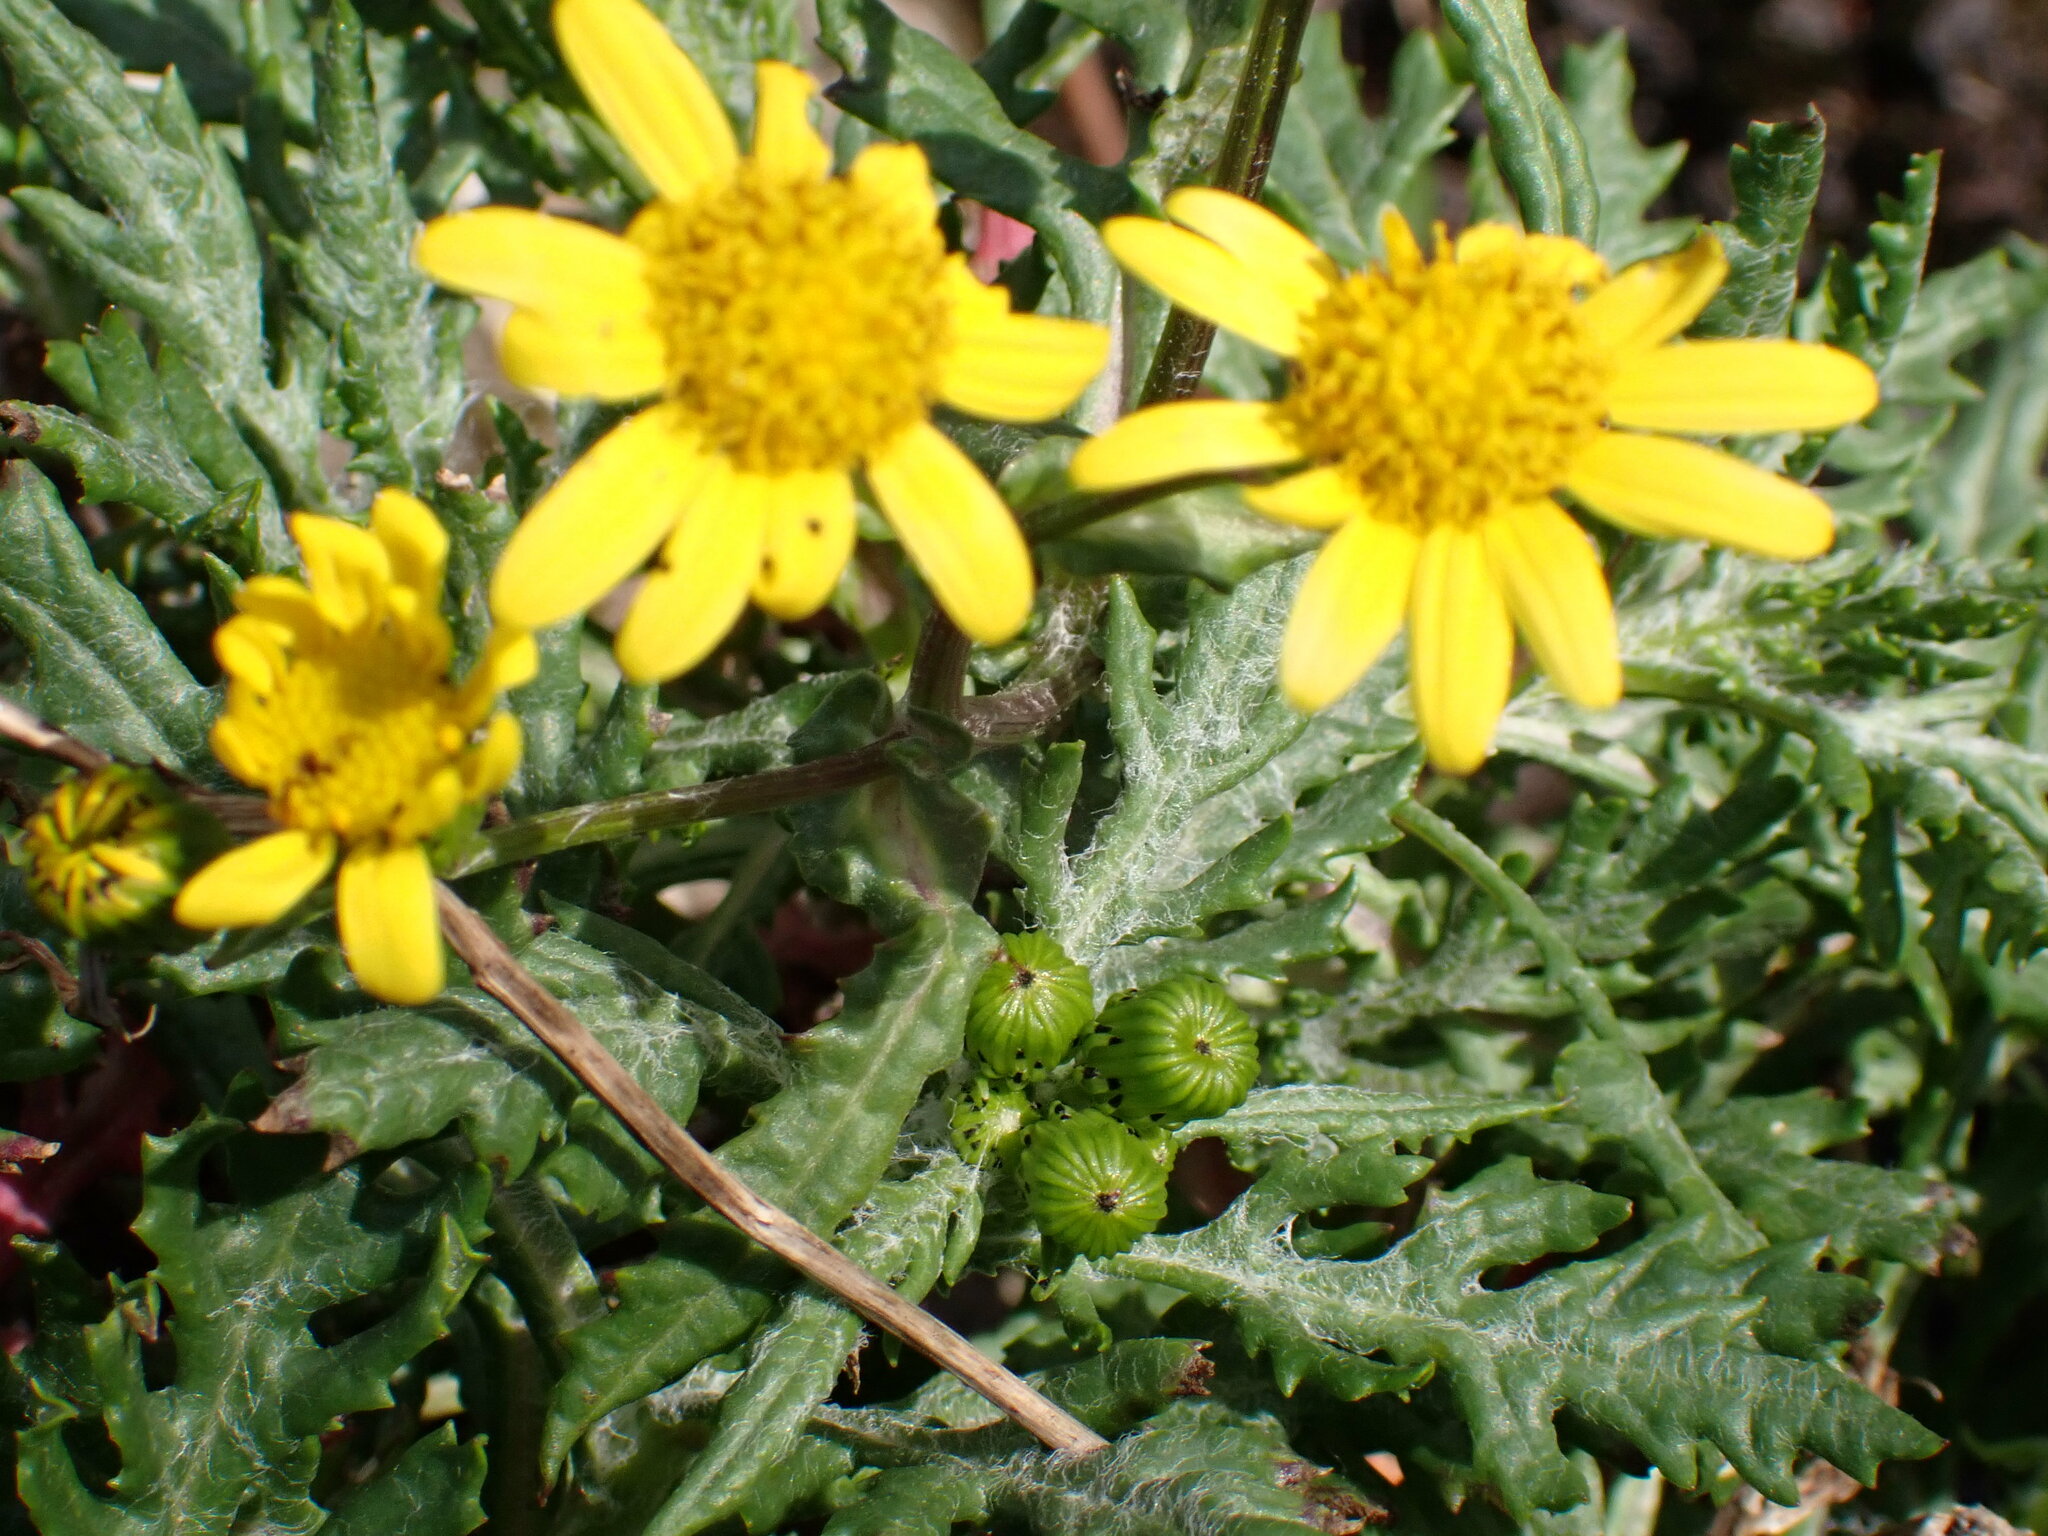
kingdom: Plantae
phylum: Tracheophyta
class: Magnoliopsida
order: Asterales
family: Asteraceae
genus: Senecio
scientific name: Senecio squalidus
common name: Oxford ragwort
